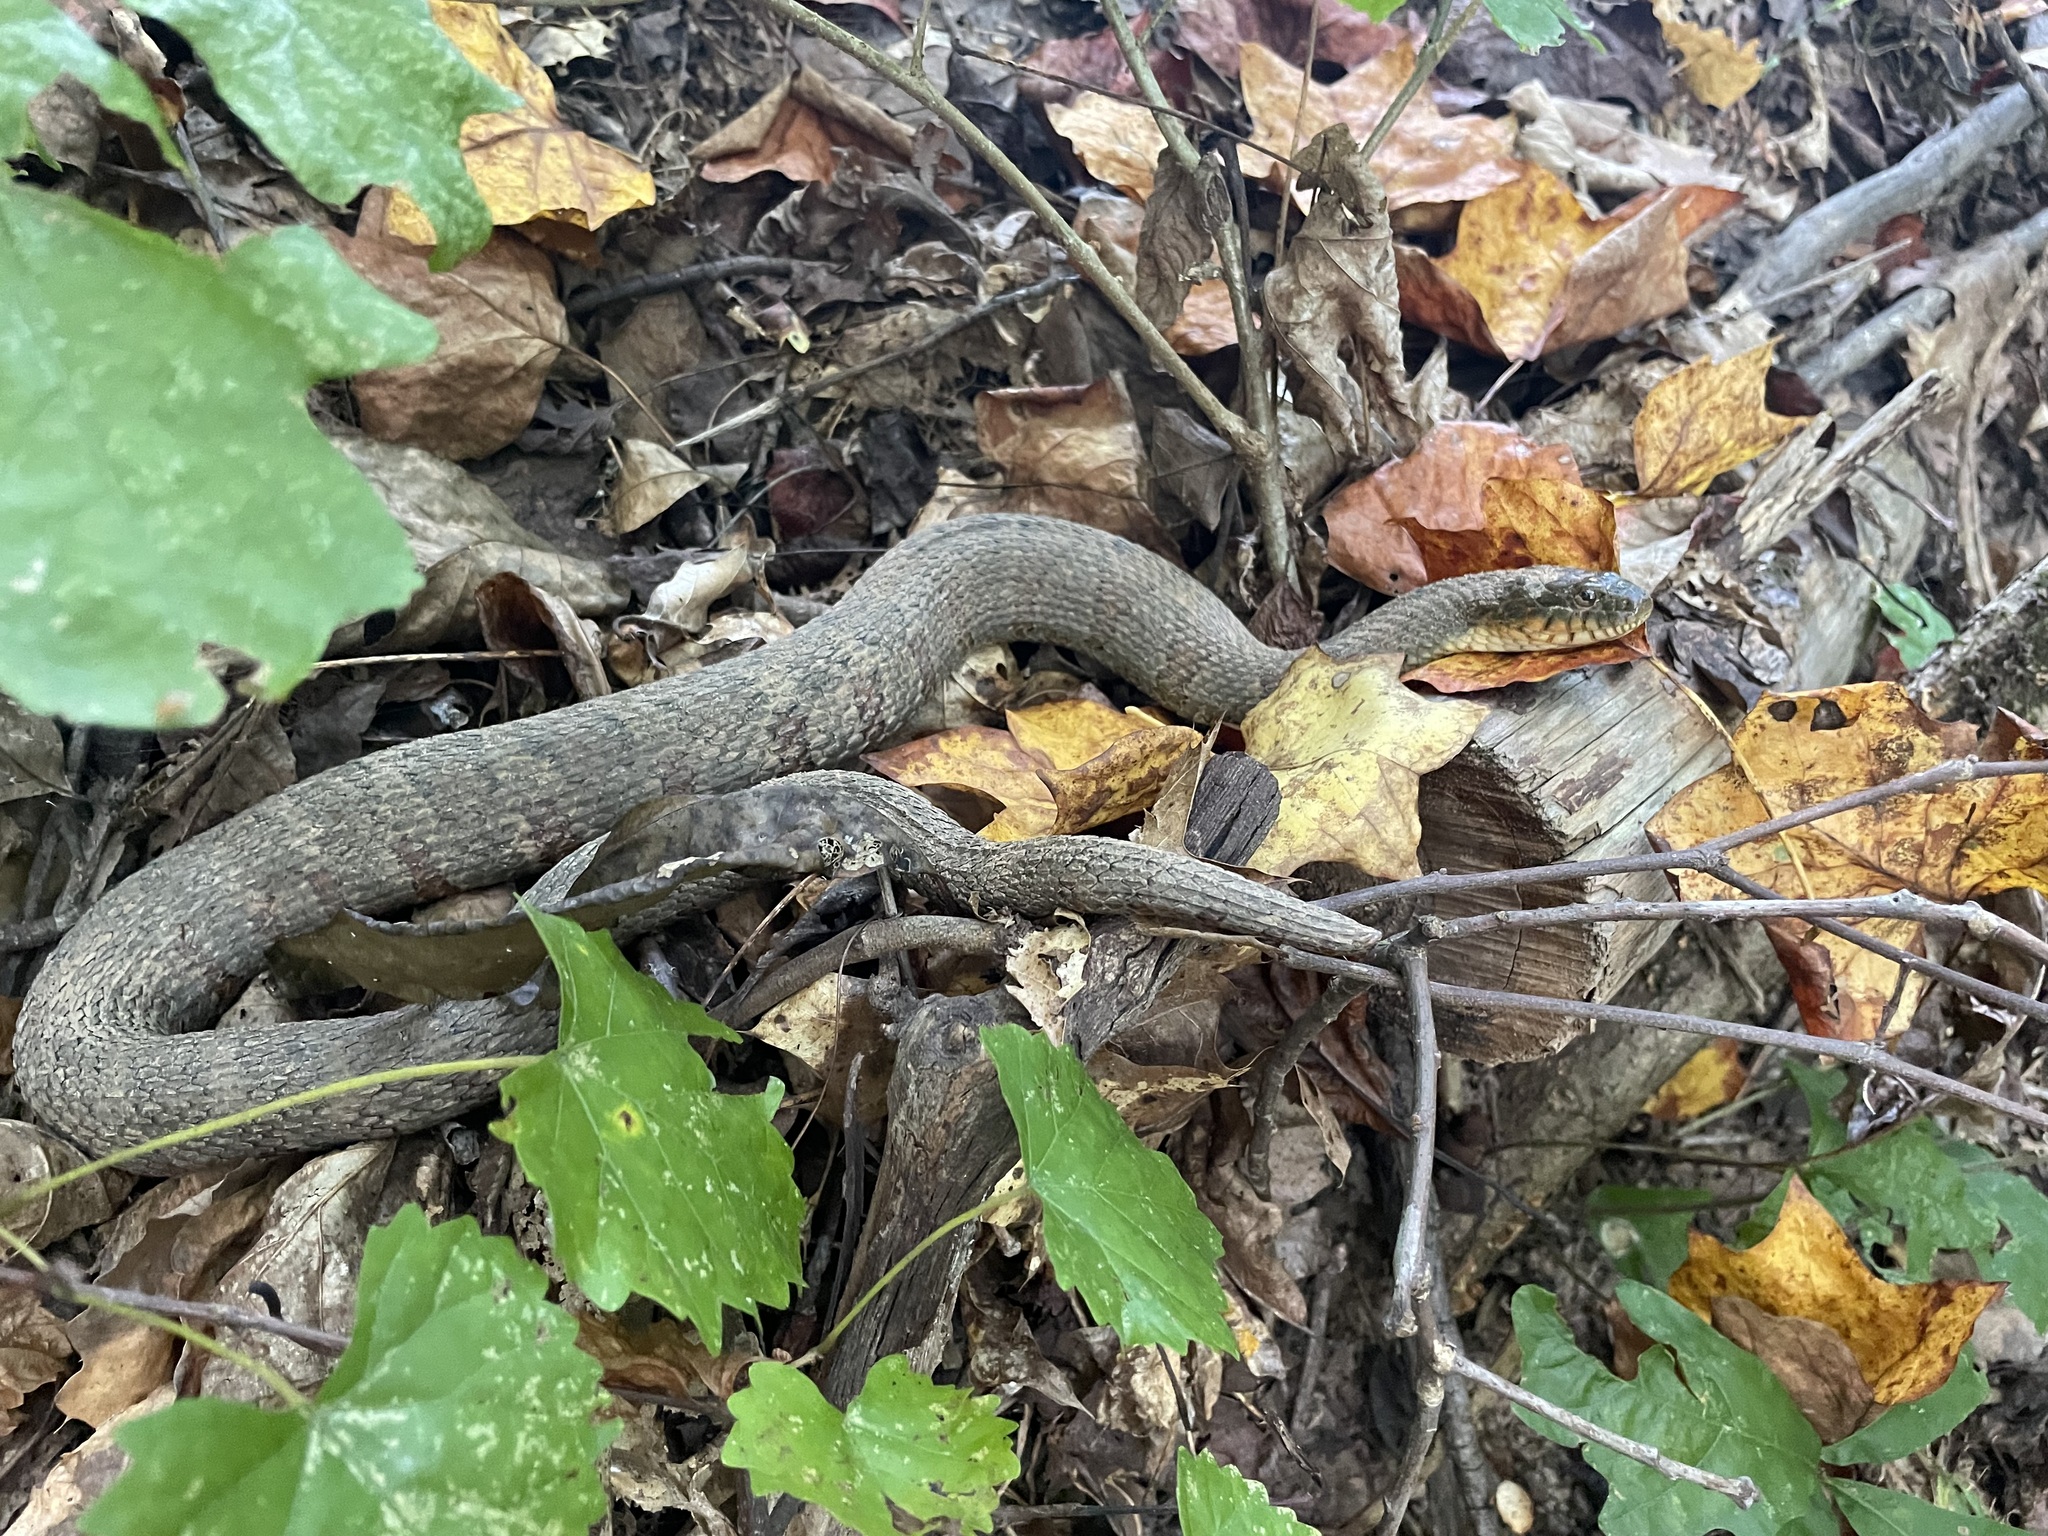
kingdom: Animalia
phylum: Chordata
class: Squamata
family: Colubridae
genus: Nerodia
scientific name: Nerodia sipedon
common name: Northern water snake
